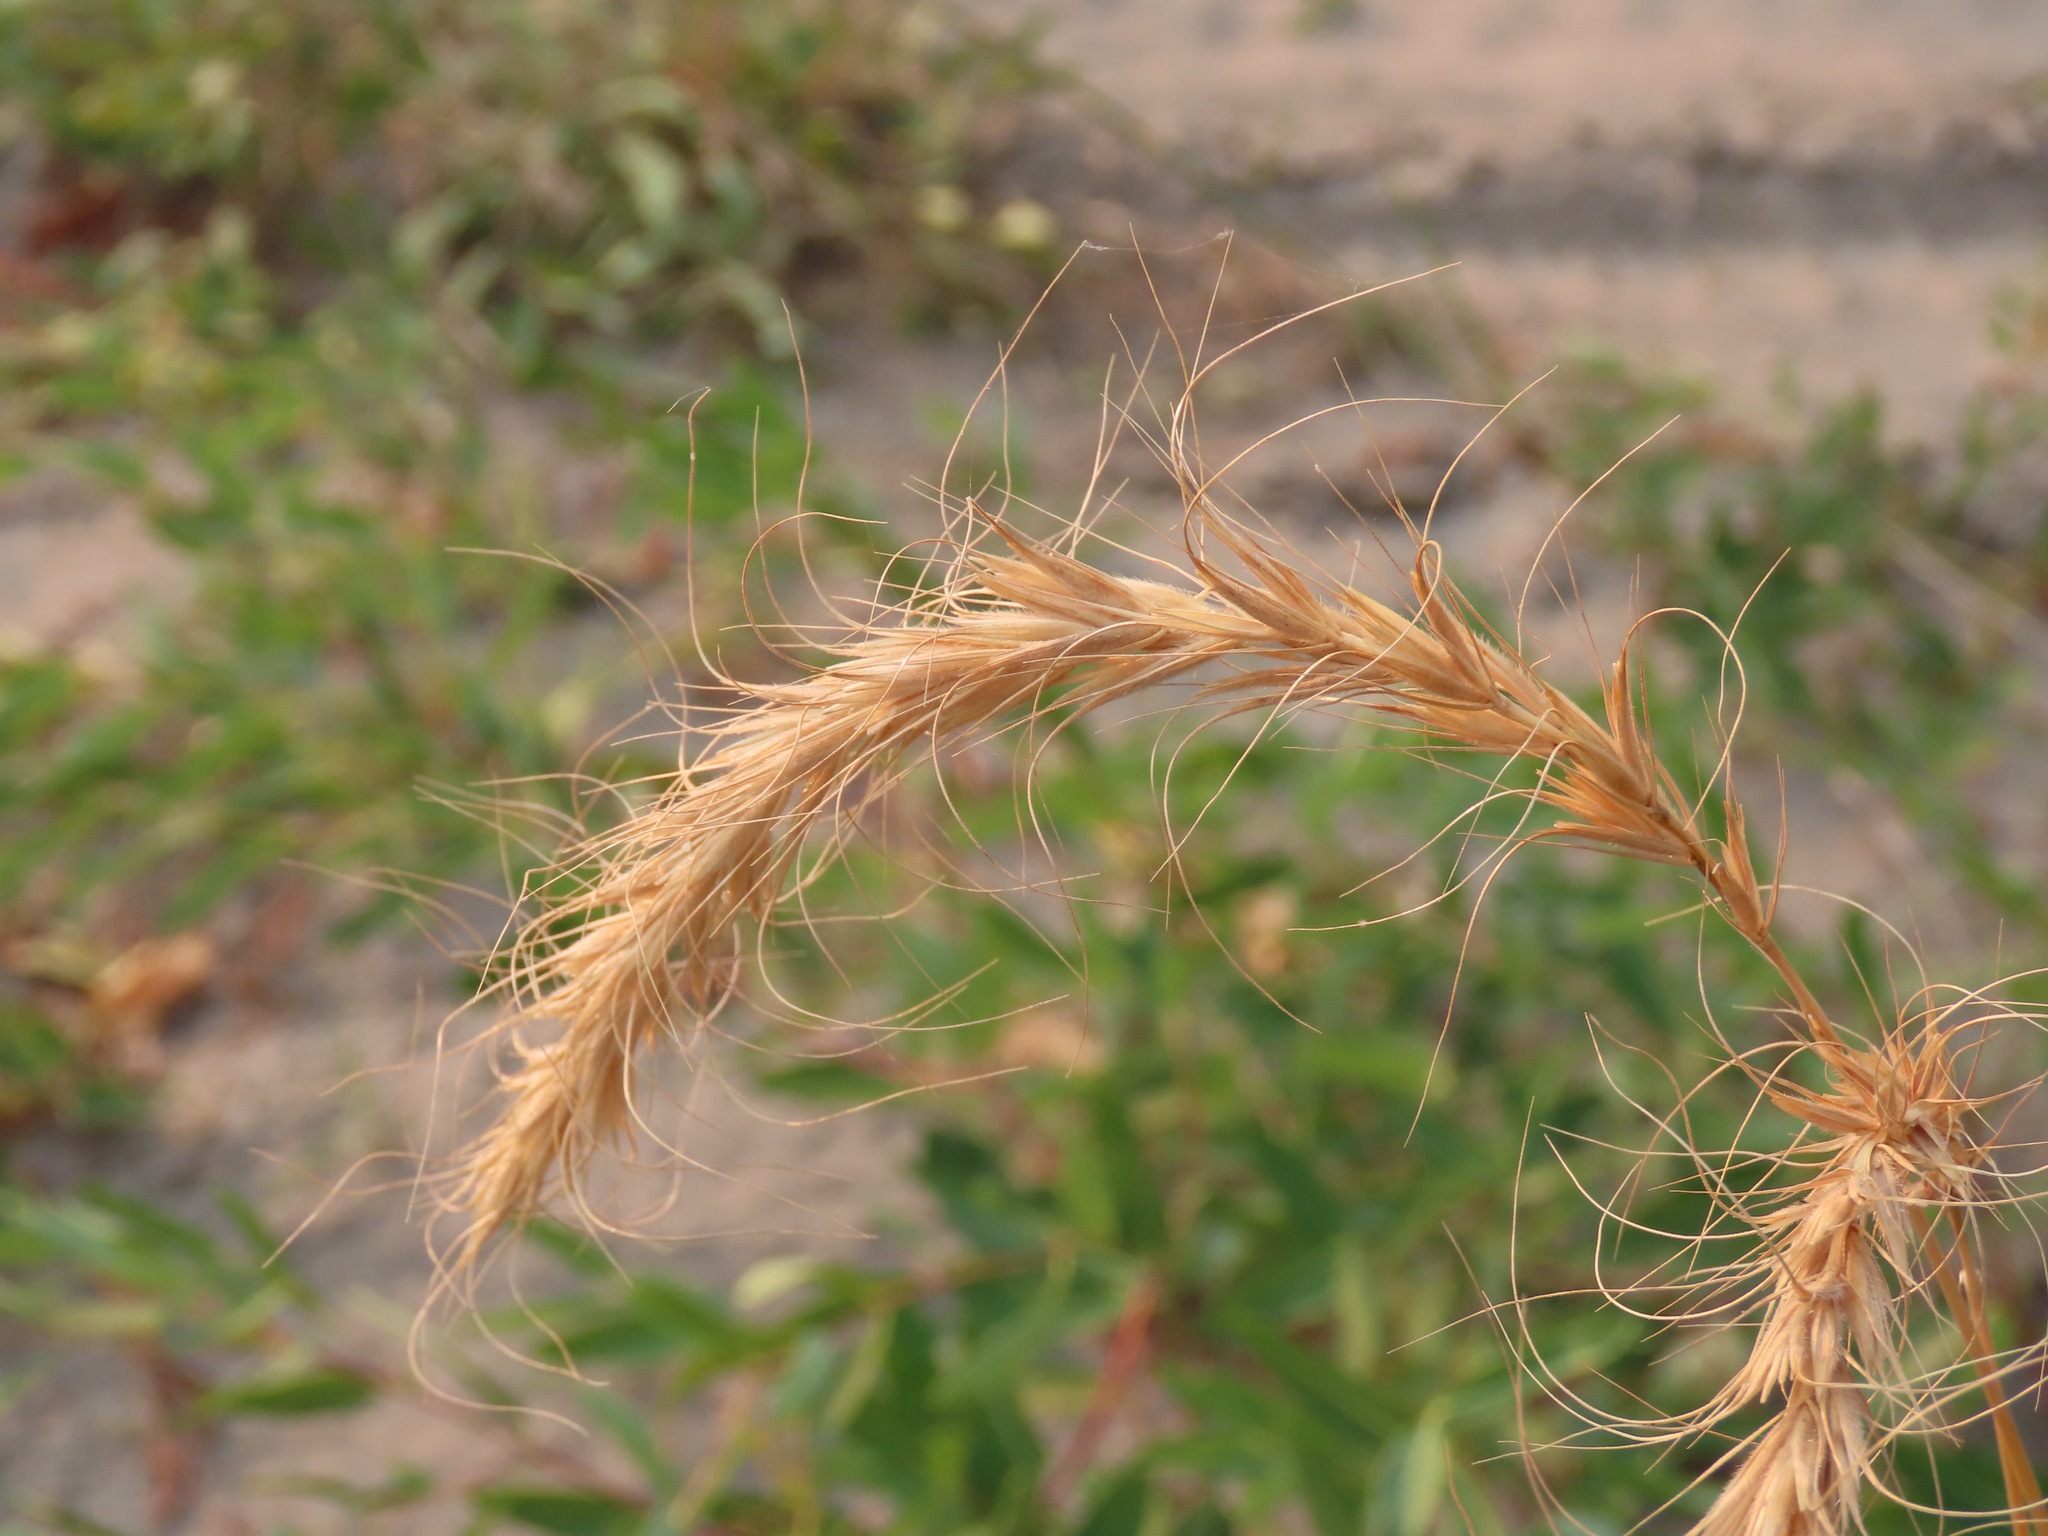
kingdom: Plantae
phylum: Tracheophyta
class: Liliopsida
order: Poales
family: Poaceae
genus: Elymus
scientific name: Elymus canadensis
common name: Canada wild rye
